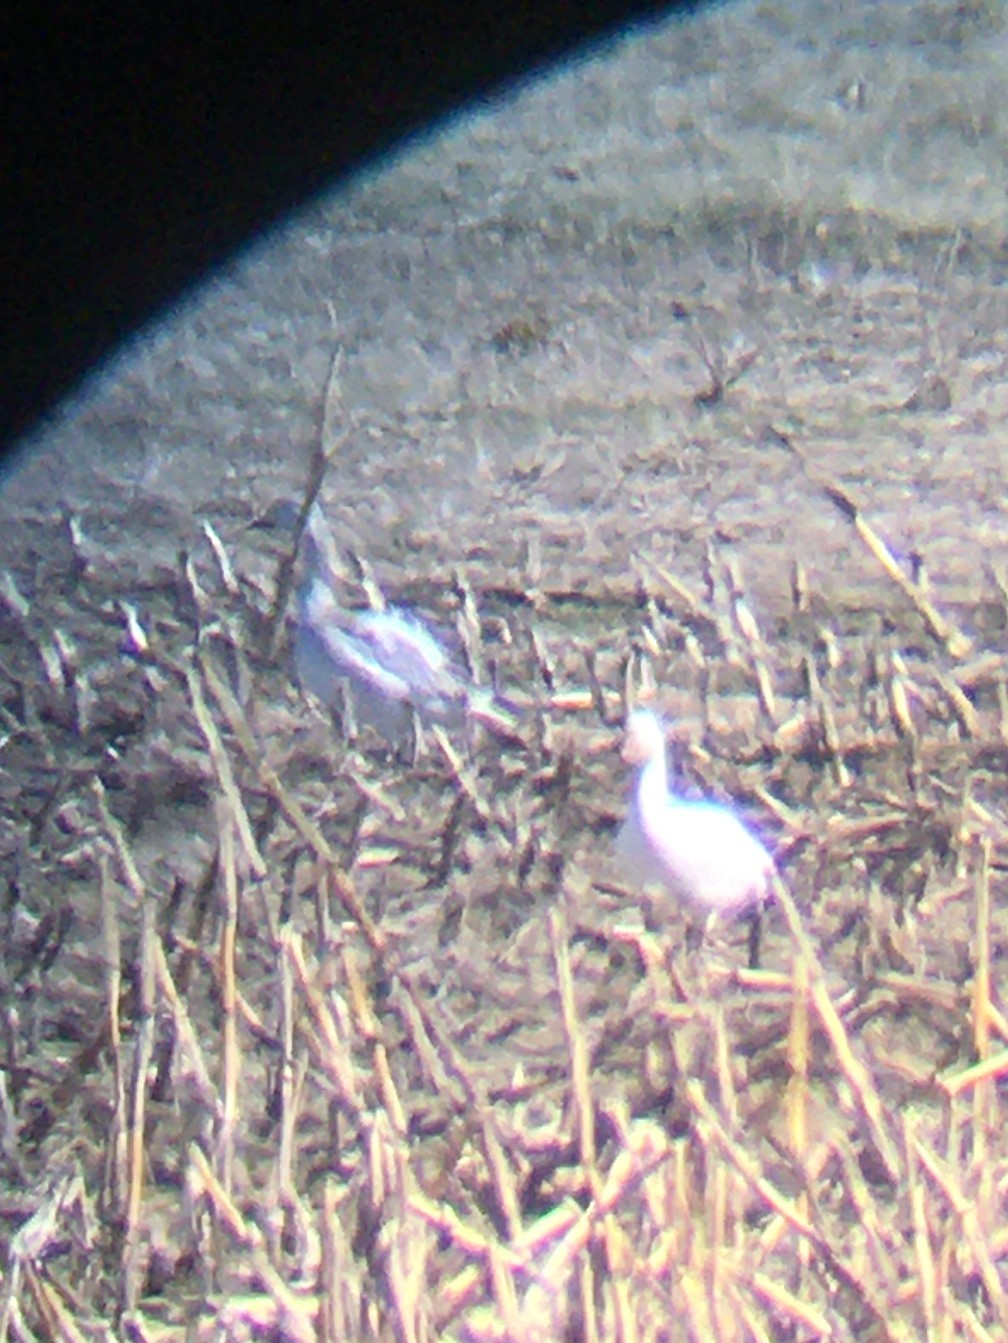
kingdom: Animalia
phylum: Chordata
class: Aves
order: Anseriformes
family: Anatidae
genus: Anser
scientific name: Anser caerulescens
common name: Snow goose
